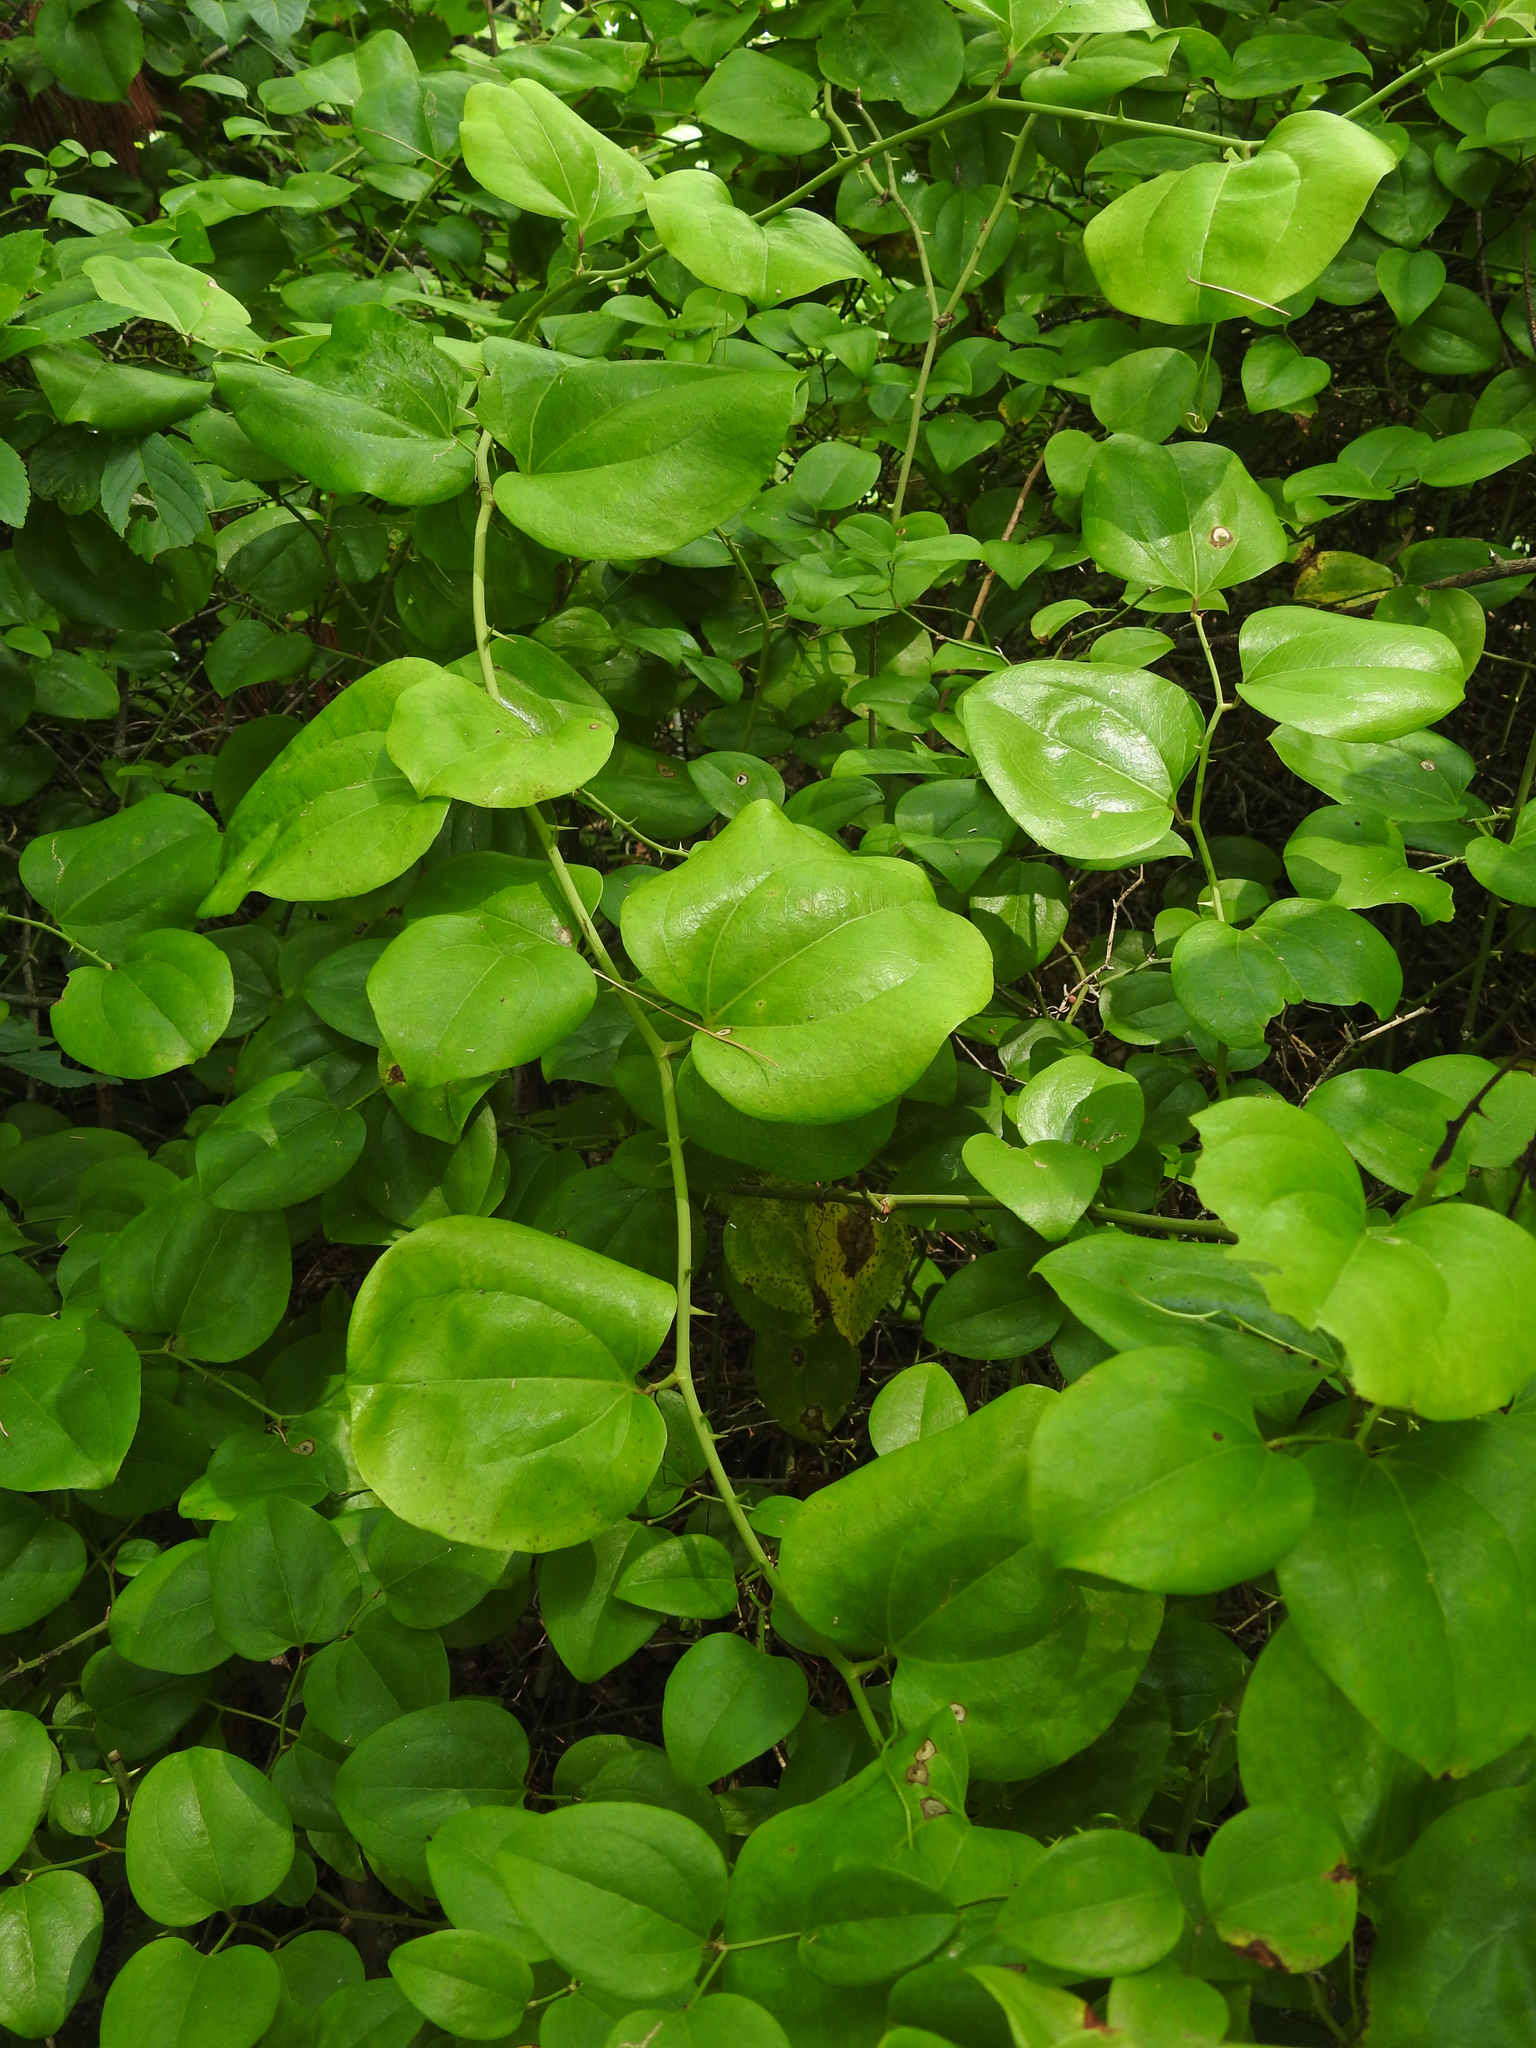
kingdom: Plantae
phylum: Tracheophyta
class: Liliopsida
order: Liliales
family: Smilacaceae
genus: Smilax
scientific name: Smilax rotundifolia
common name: Bullbriar
